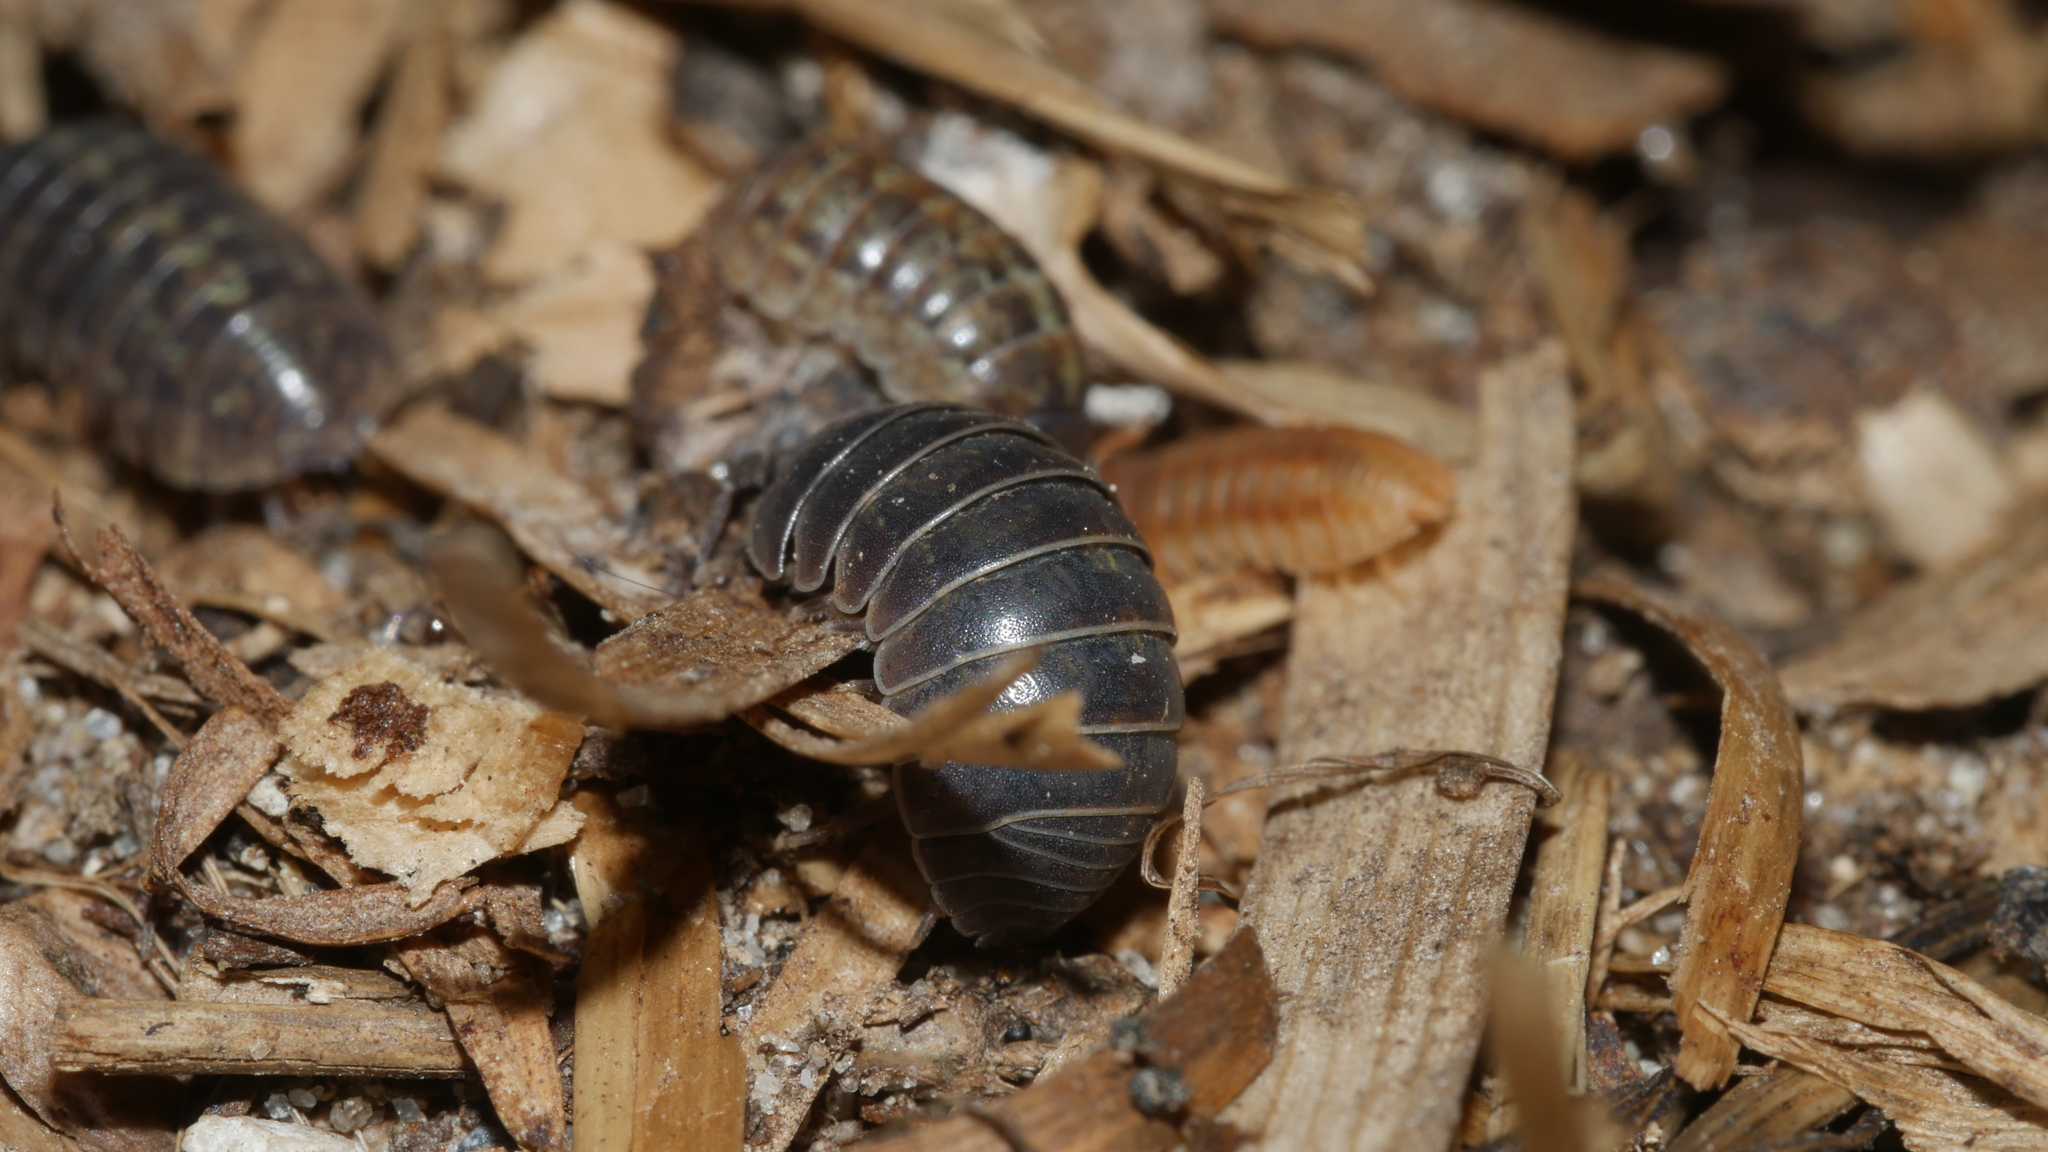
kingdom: Animalia
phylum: Arthropoda
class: Malacostraca
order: Isopoda
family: Armadillidiidae
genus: Armadillidium
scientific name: Armadillidium vulgare
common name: Common pill woodlouse
